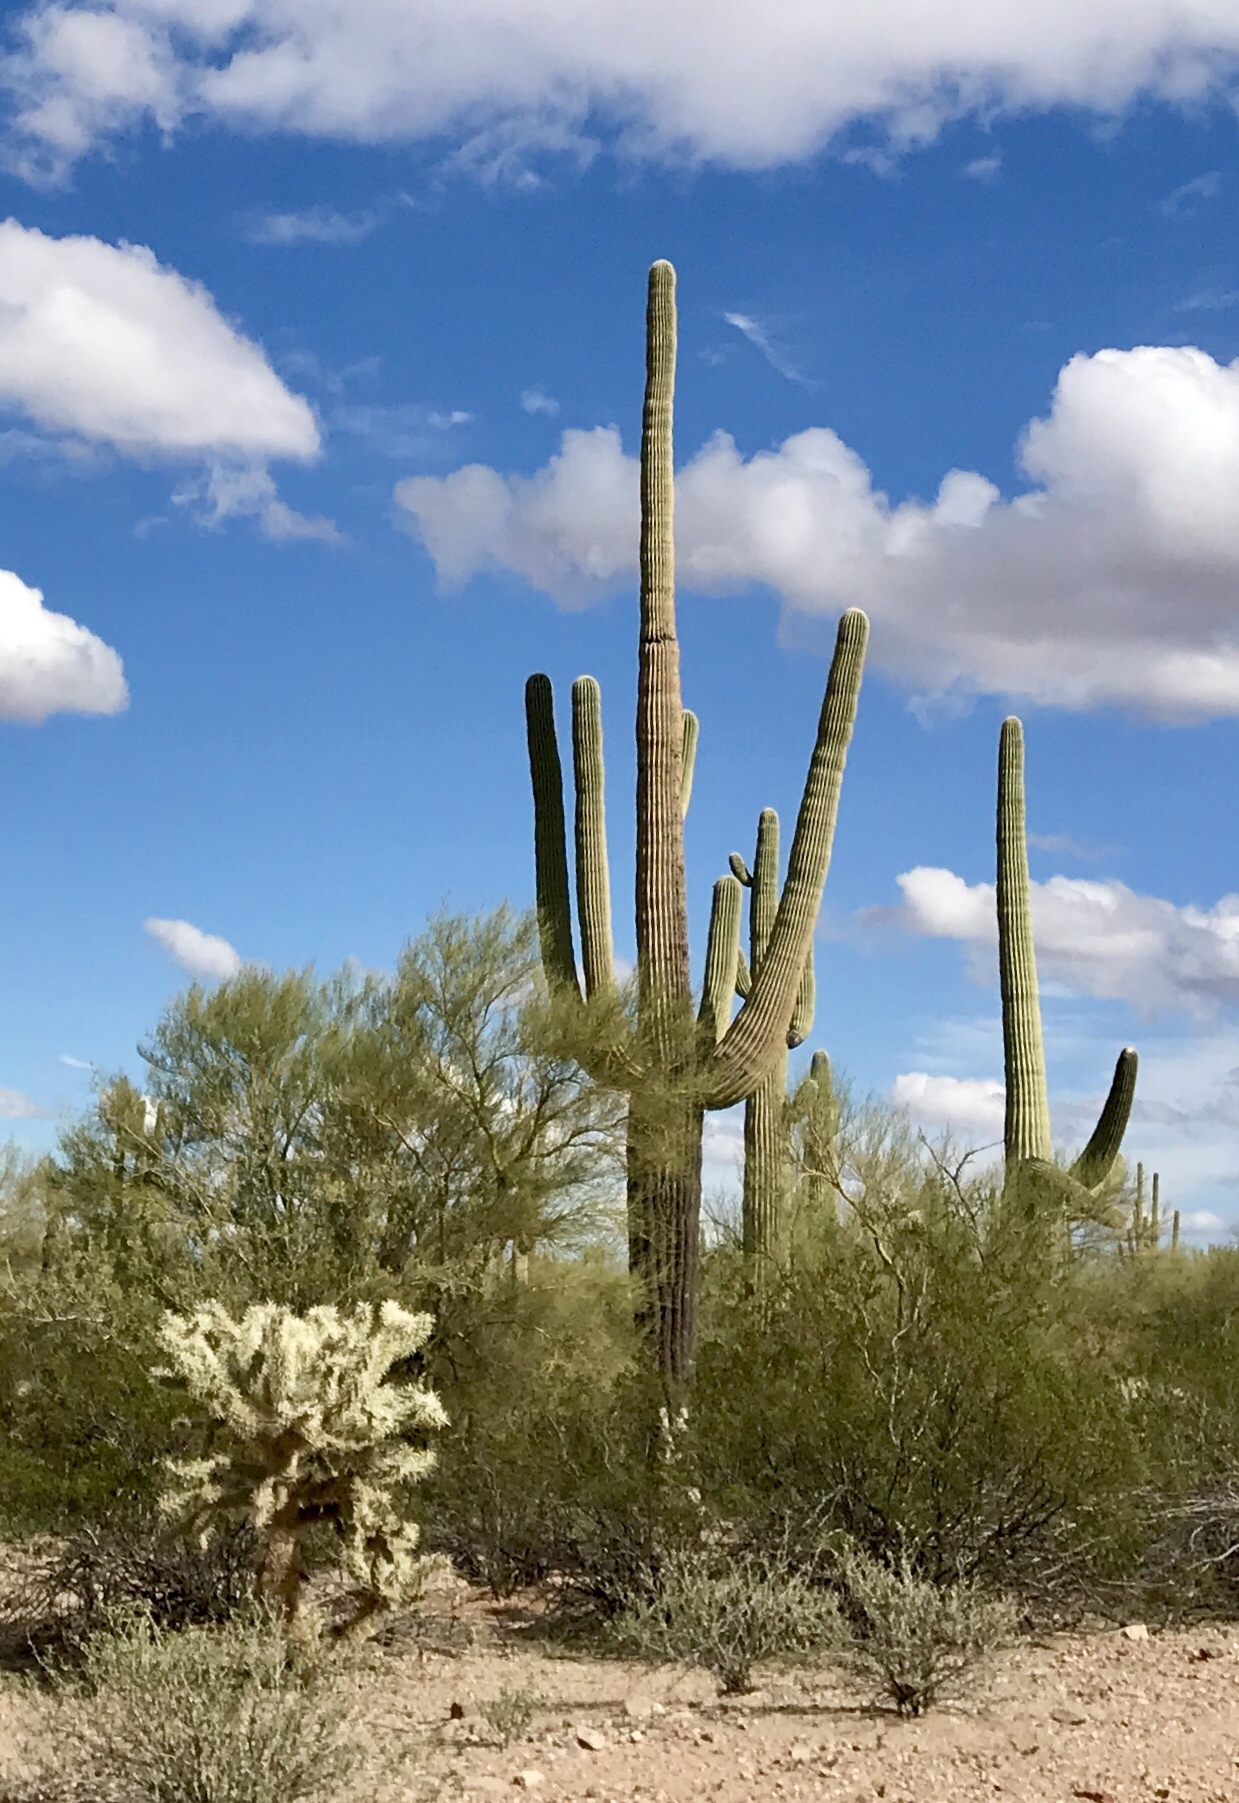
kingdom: Plantae
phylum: Tracheophyta
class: Magnoliopsida
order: Caryophyllales
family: Cactaceae
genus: Carnegiea
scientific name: Carnegiea gigantea
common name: Saguaro
